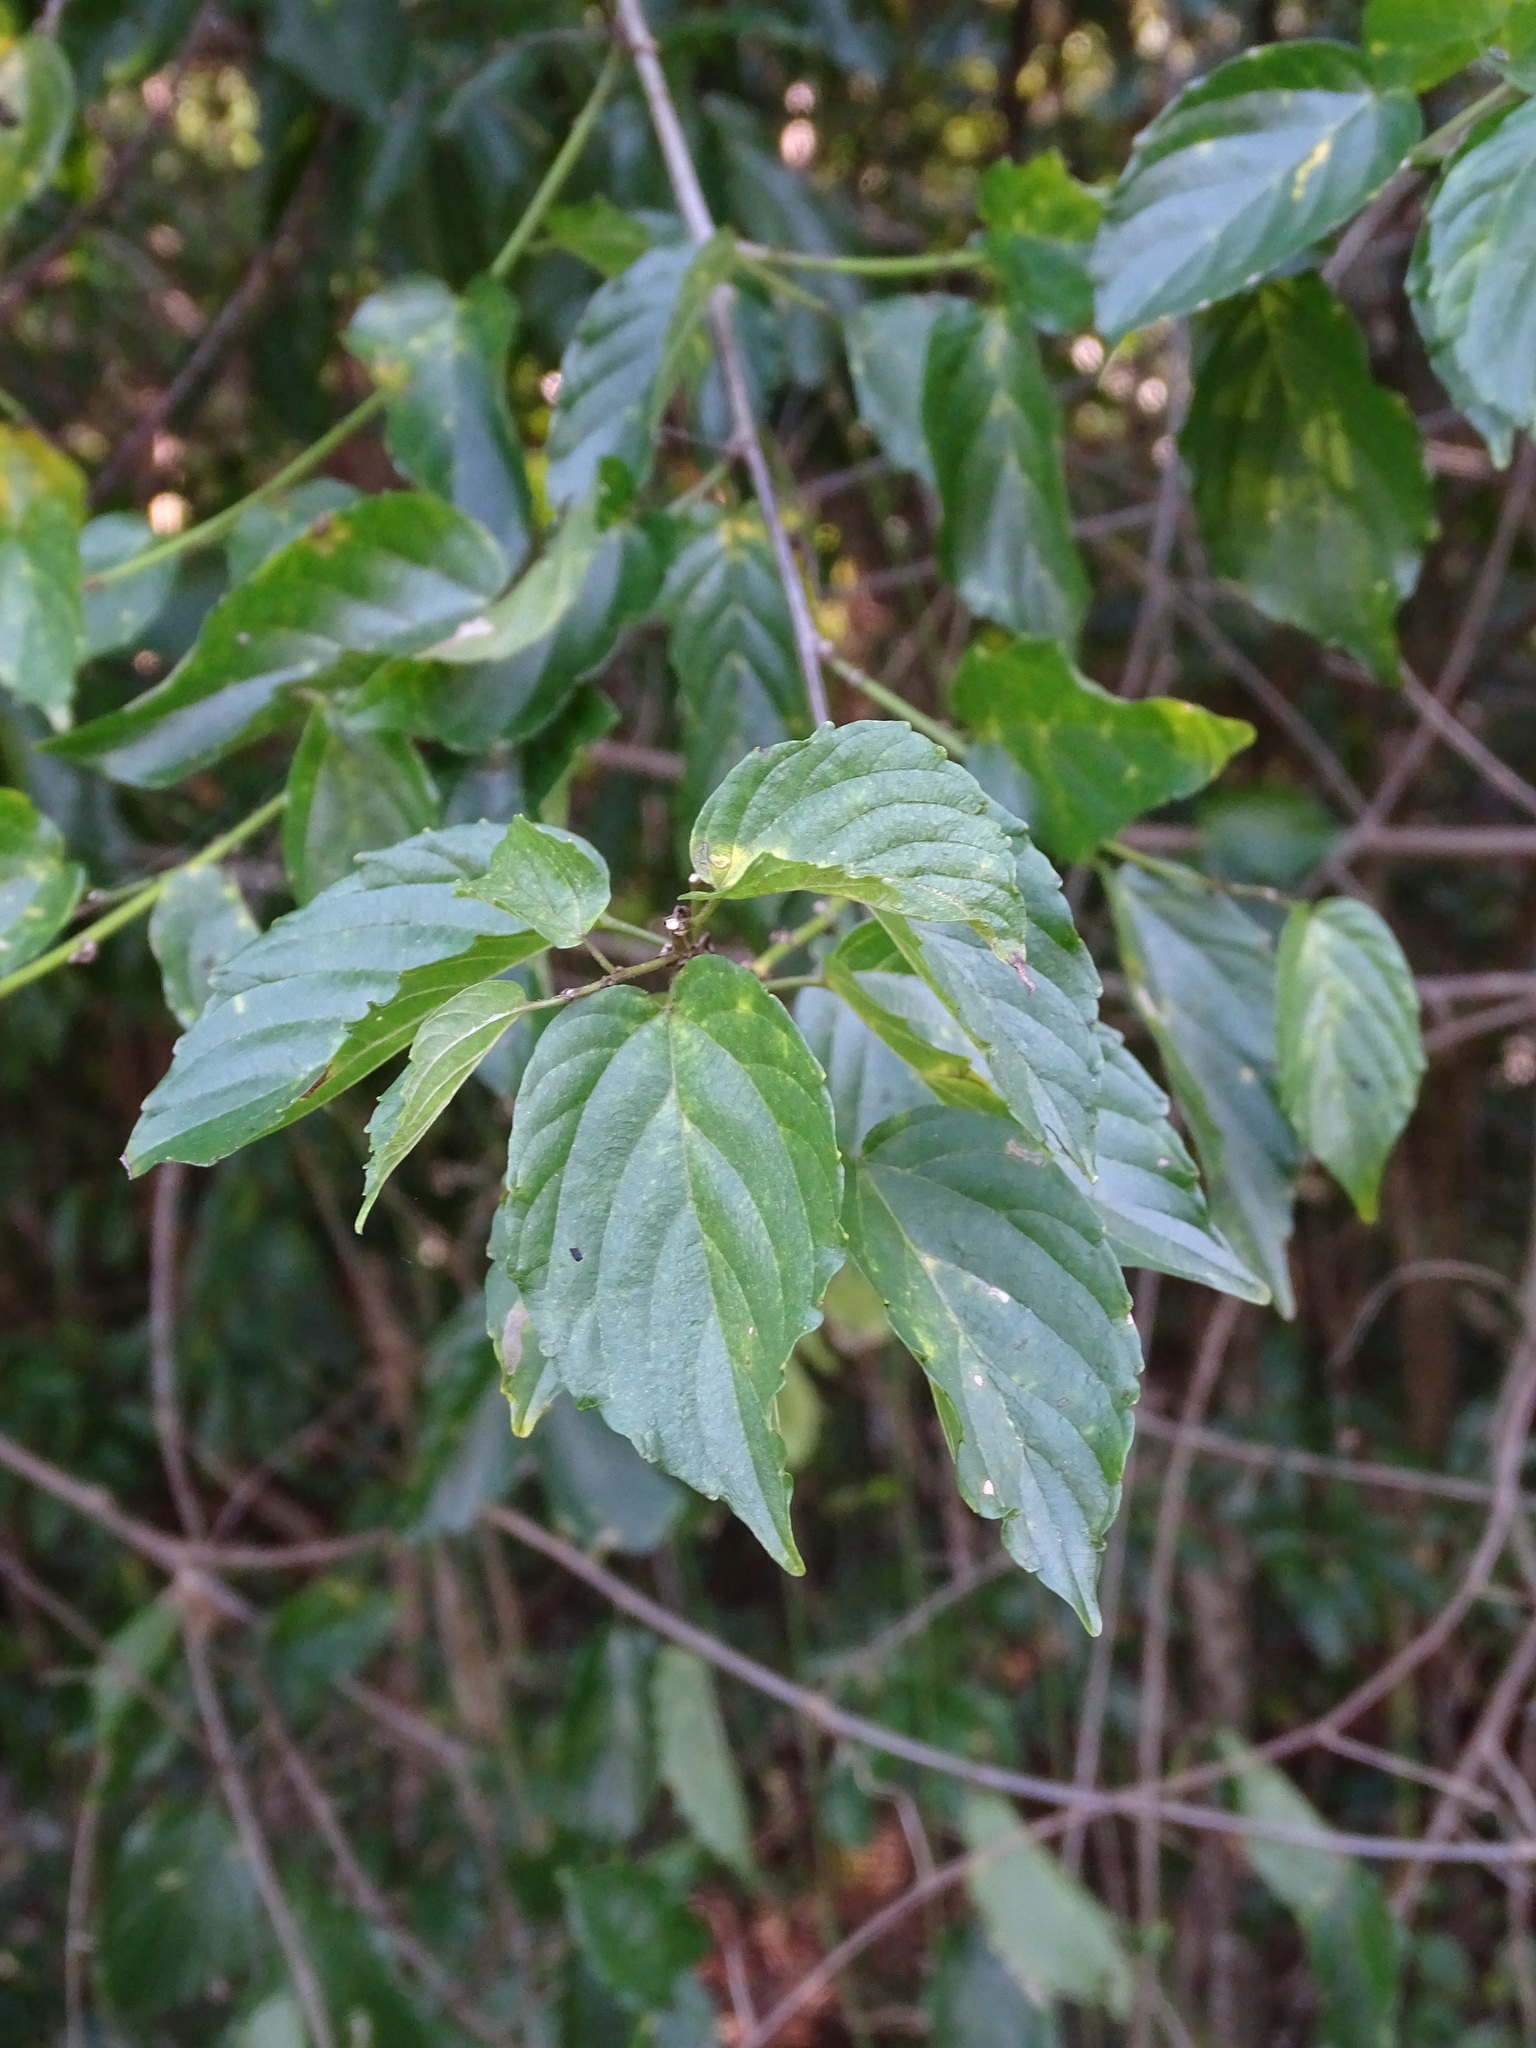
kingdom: Plantae
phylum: Tracheophyta
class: Magnoliopsida
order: Rosales
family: Rhamnaceae
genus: Gouania
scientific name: Gouania lupuloides
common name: Chewstick
